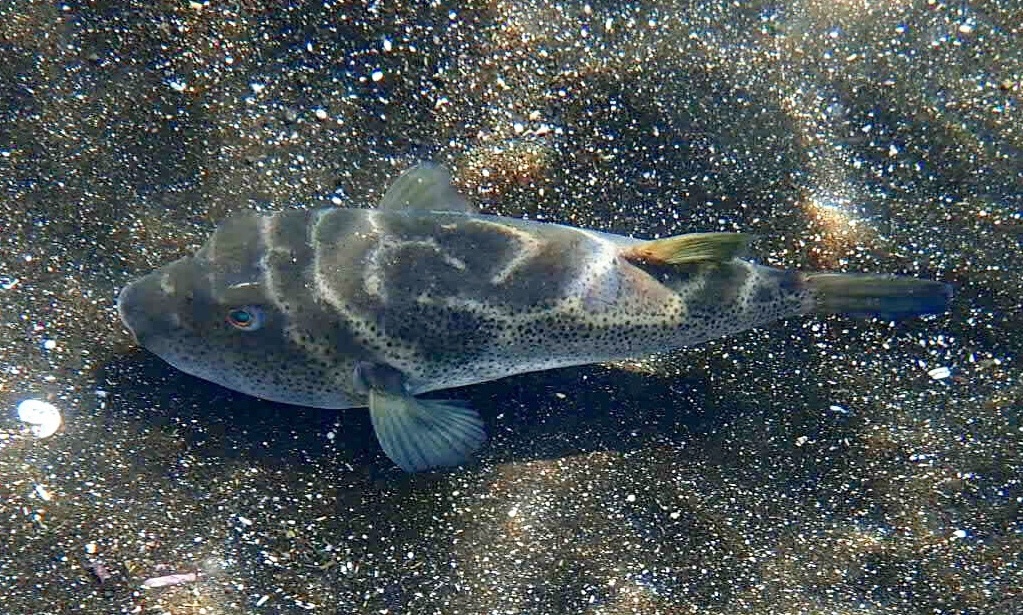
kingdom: Animalia
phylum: Chordata
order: Tetraodontiformes
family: Tetraodontidae
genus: Sphoeroides
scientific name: Sphoeroides annulatus
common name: Bullseye puffer
